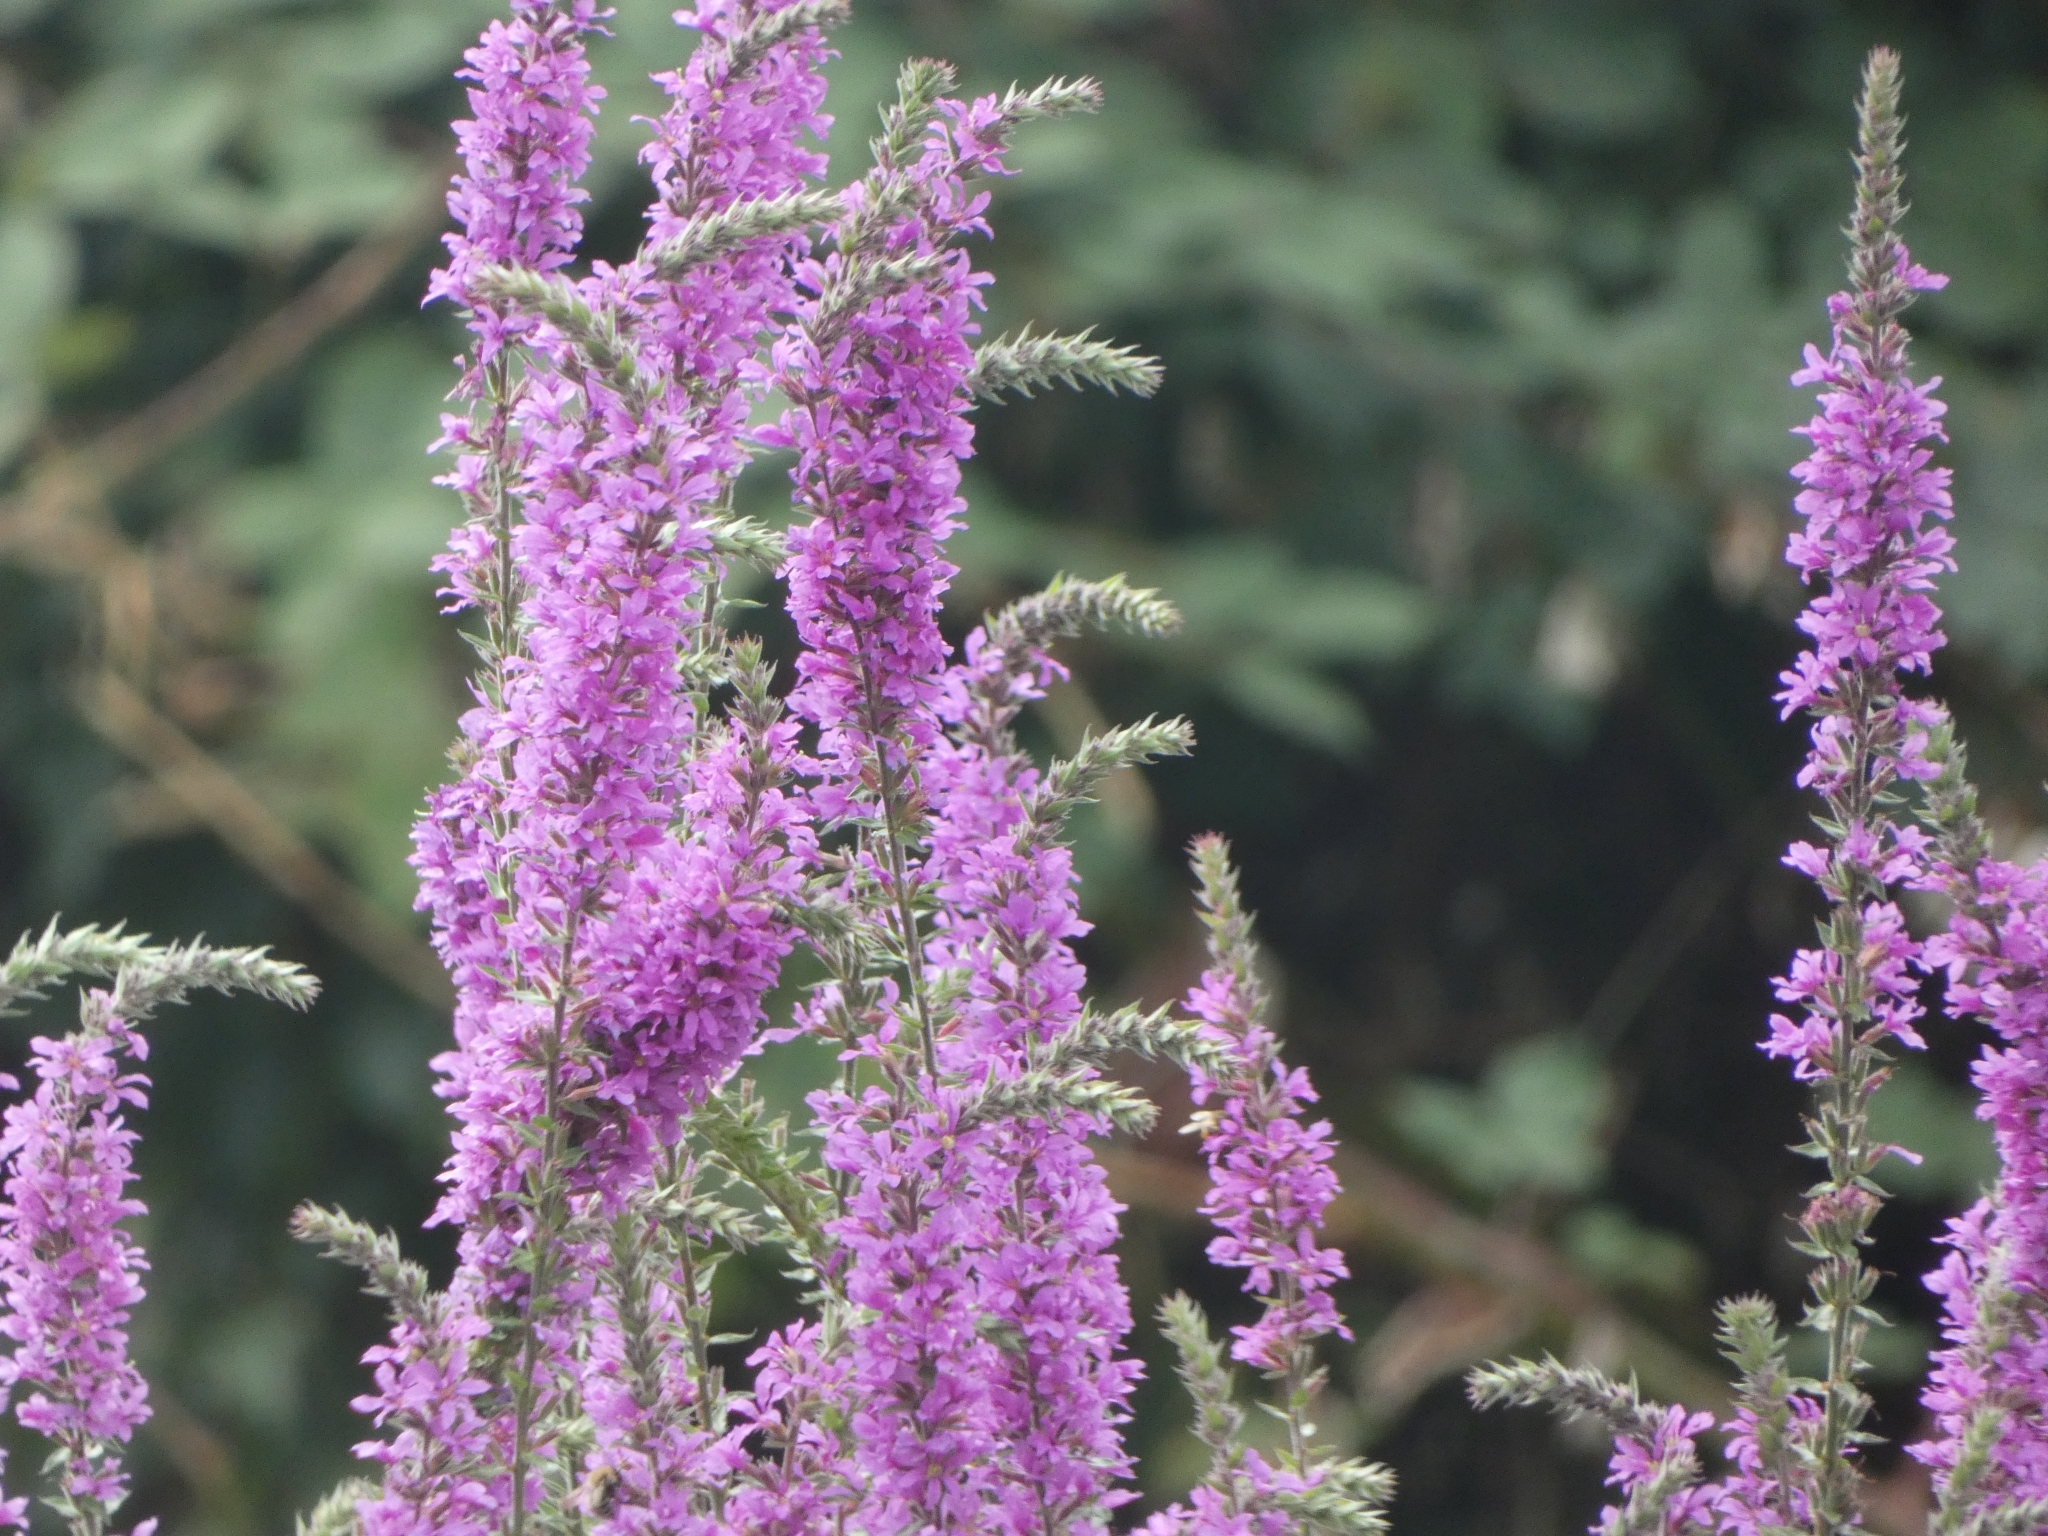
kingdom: Plantae
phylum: Tracheophyta
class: Magnoliopsida
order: Myrtales
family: Lythraceae
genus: Lythrum
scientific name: Lythrum salicaria
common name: Purple loosestrife
